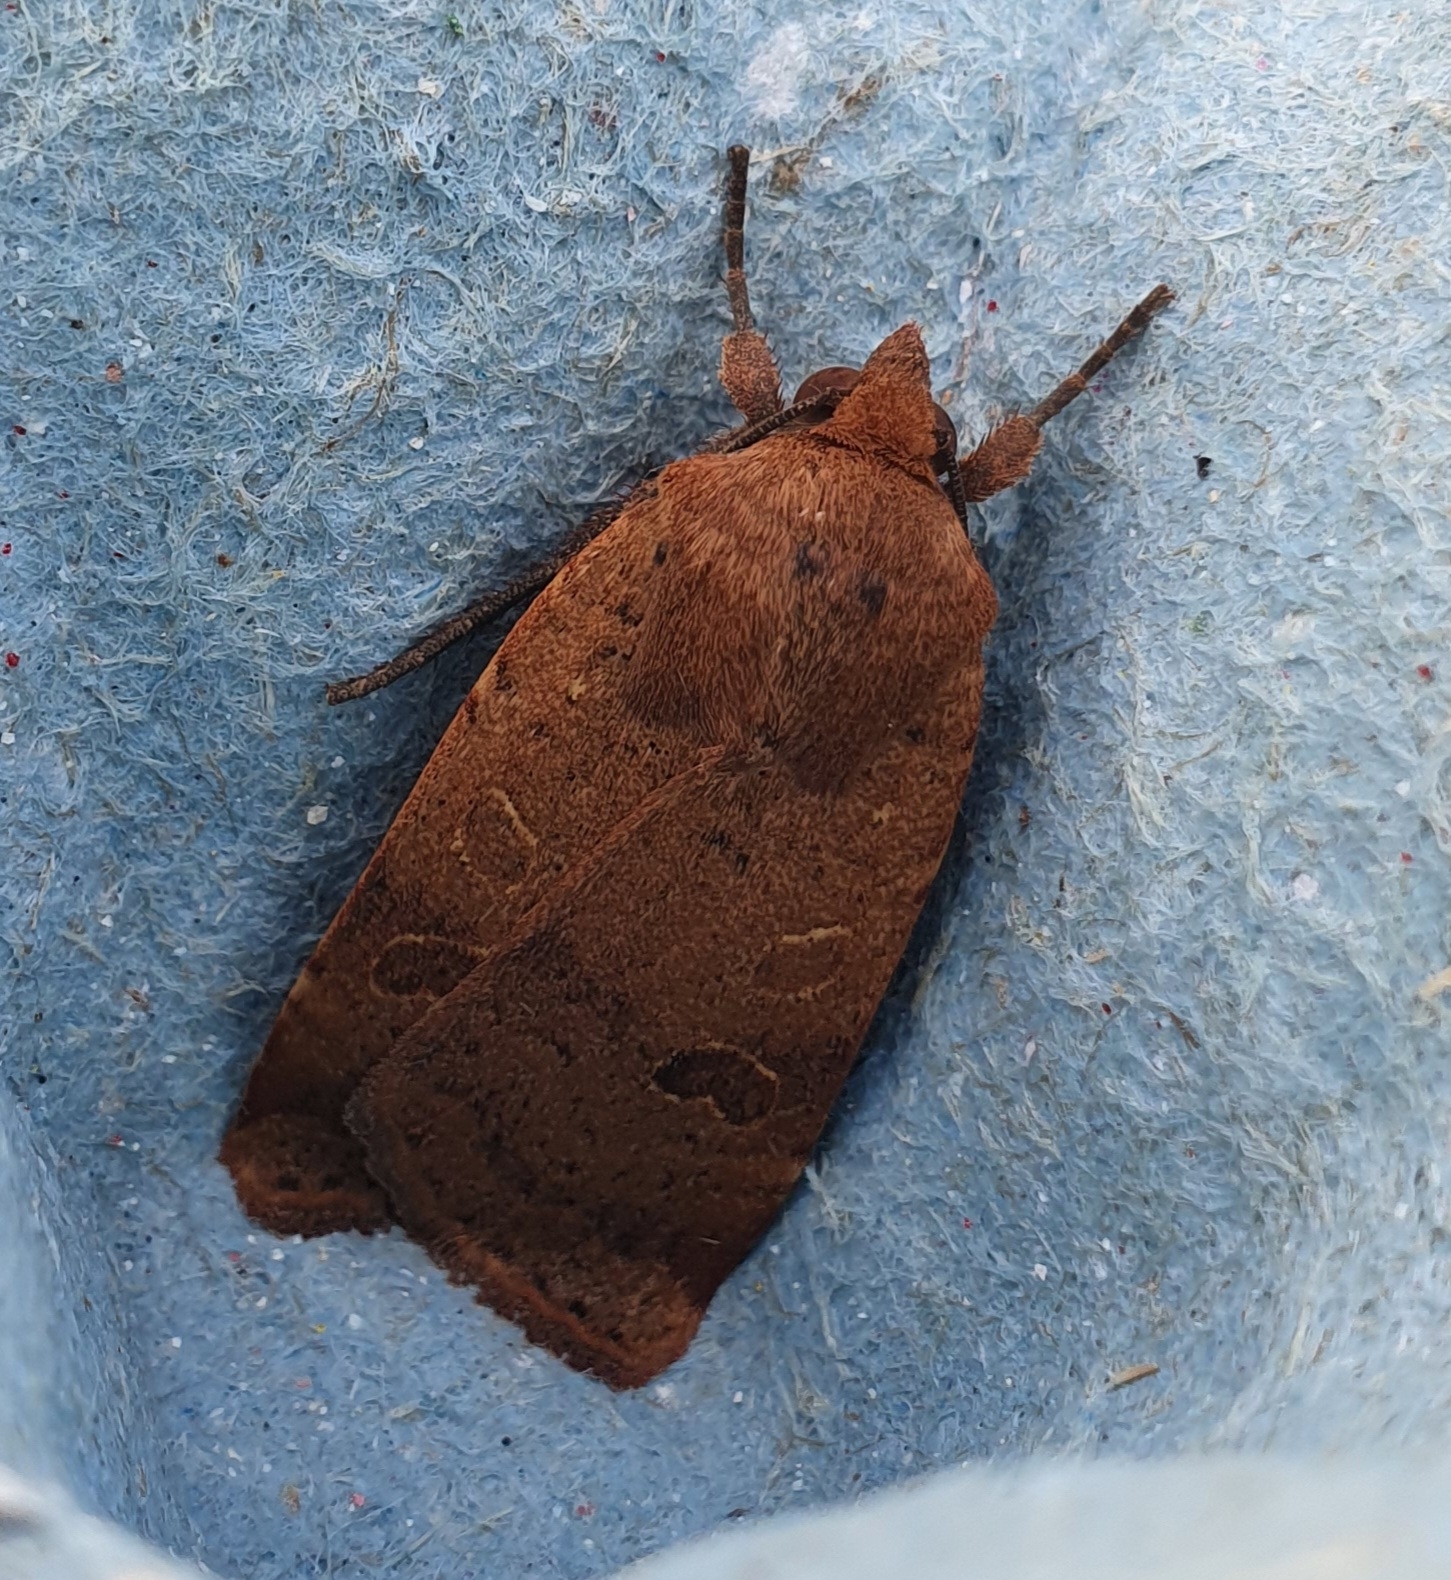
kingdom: Animalia
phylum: Arthropoda
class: Insecta
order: Lepidoptera
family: Noctuidae
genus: Noctua
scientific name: Noctua comes
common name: Lesser yellow underwing
